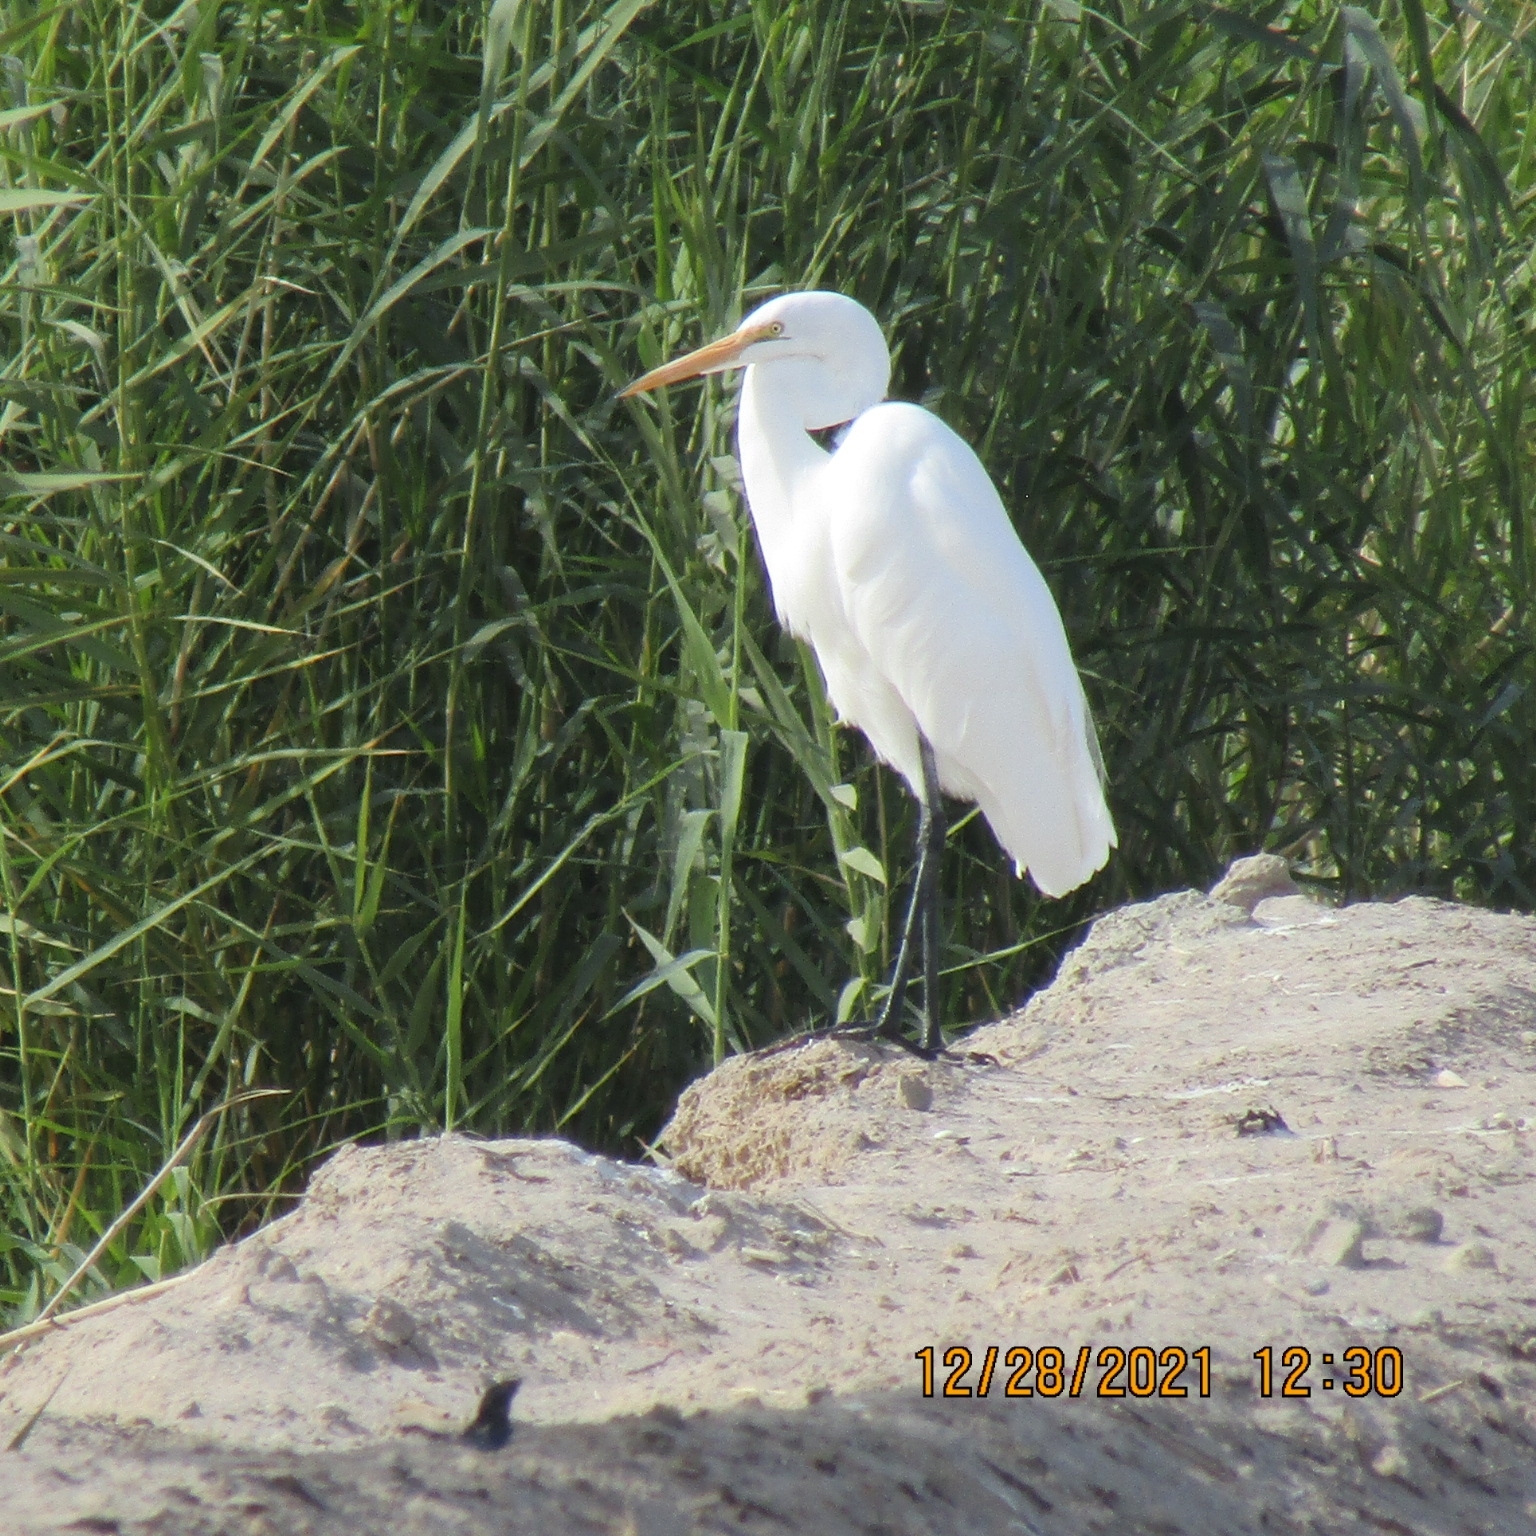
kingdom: Animalia
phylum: Chordata
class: Aves
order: Pelecaniformes
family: Ardeidae
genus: Ardea
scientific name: Ardea alba
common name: Great egret
